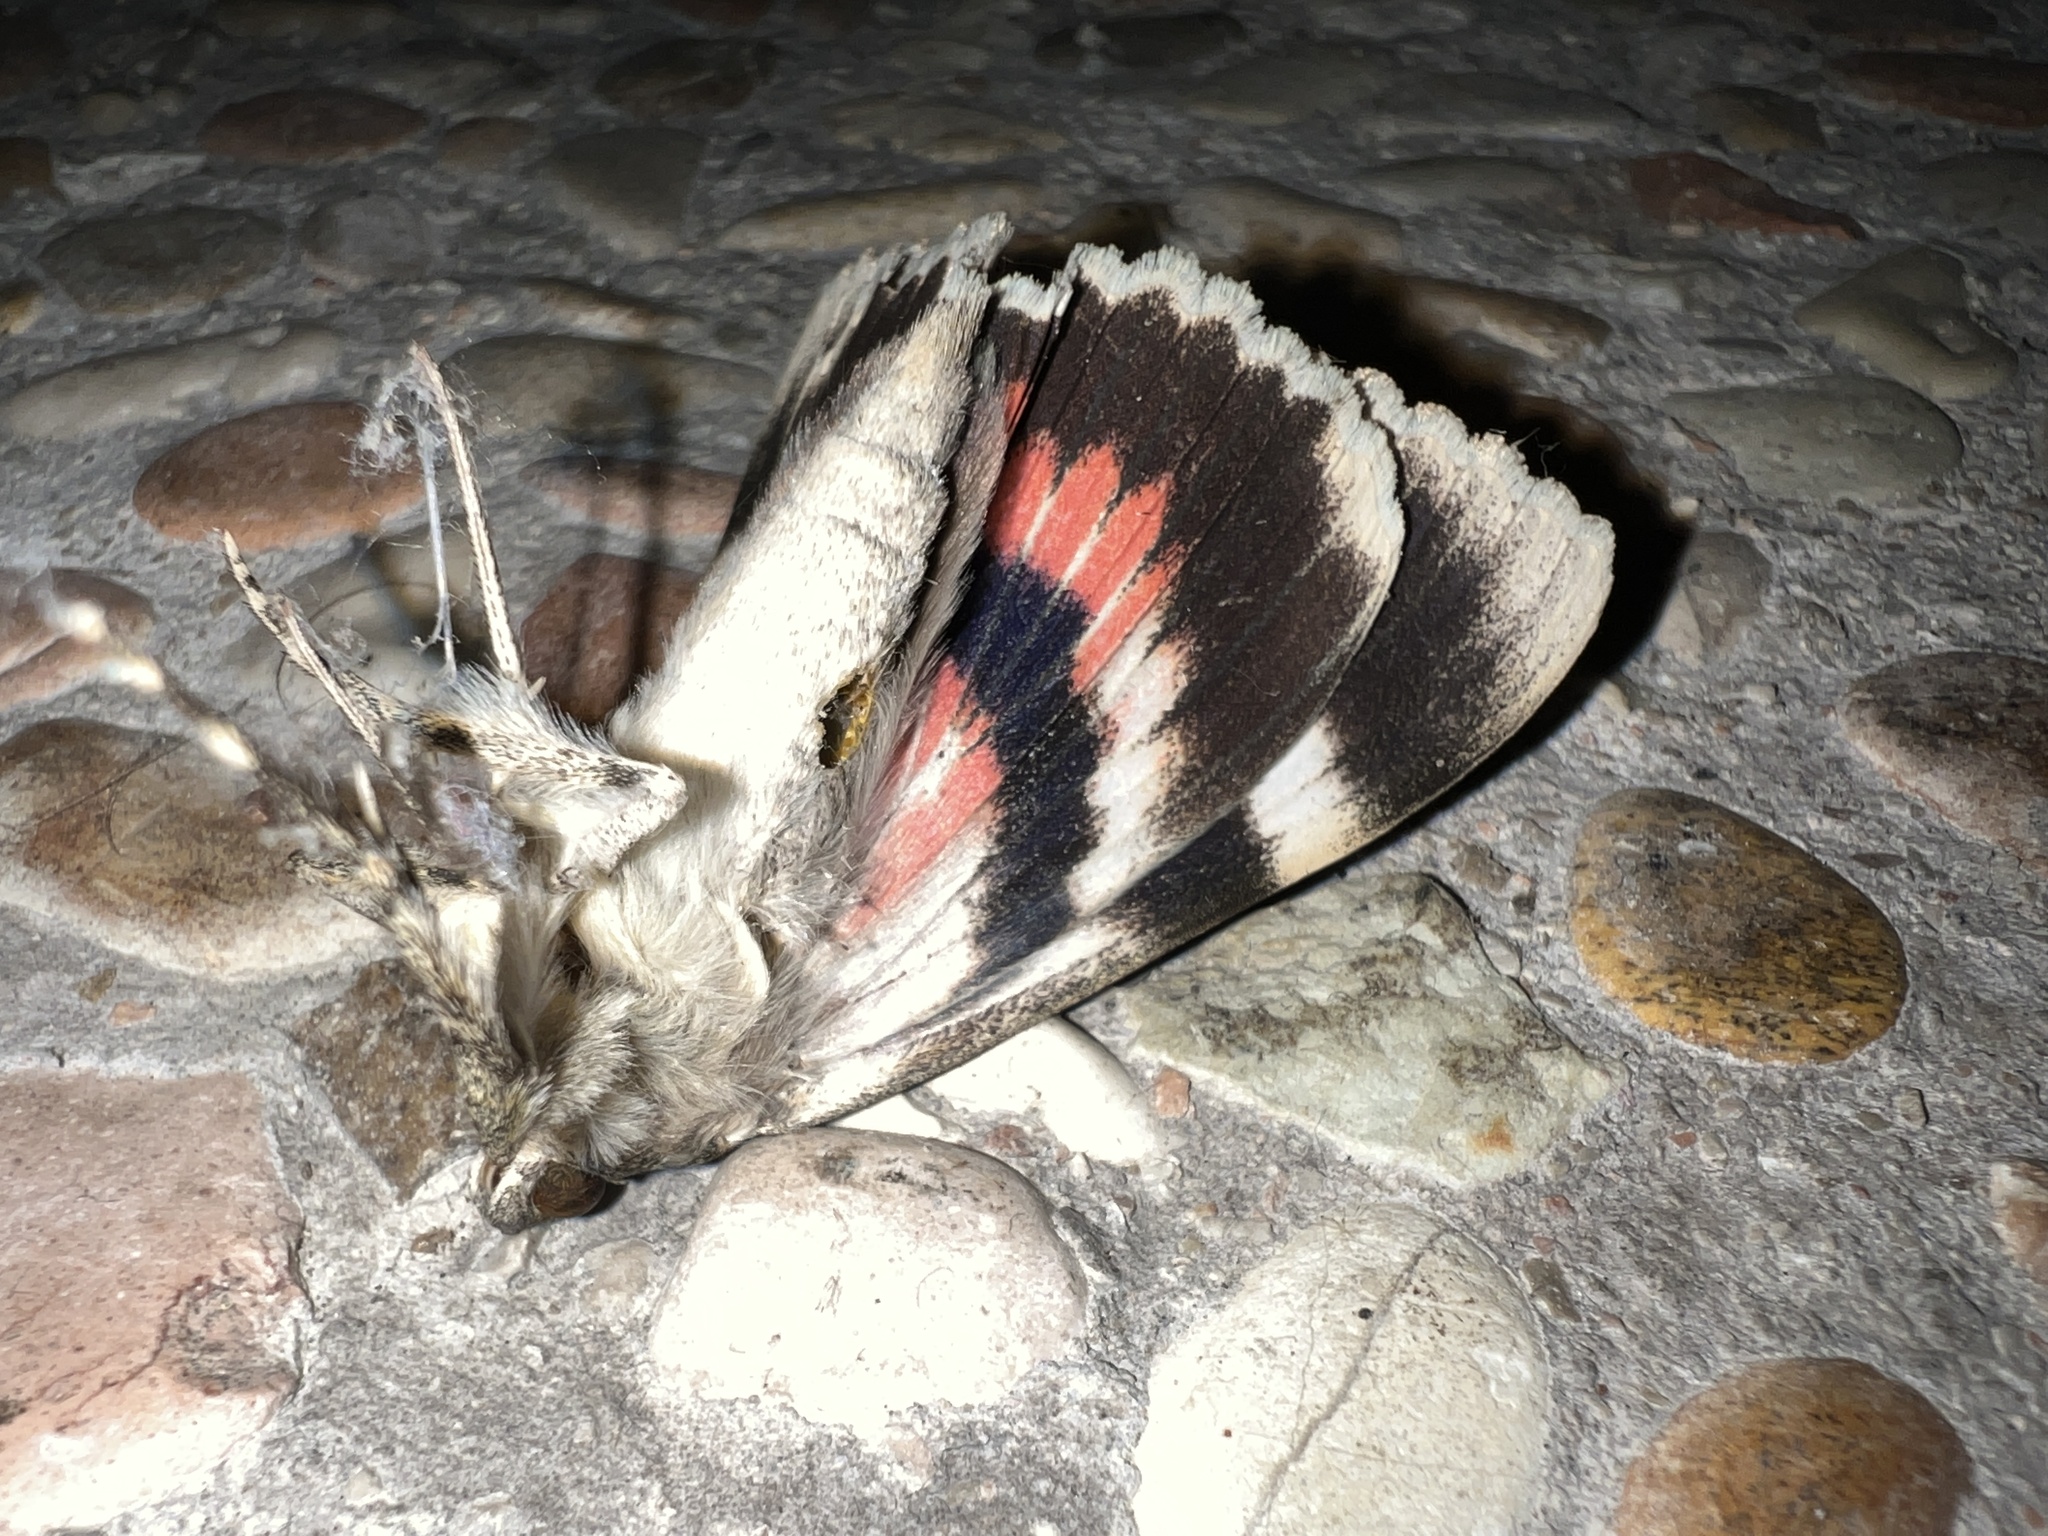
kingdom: Animalia
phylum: Arthropoda
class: Insecta
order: Lepidoptera
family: Erebidae
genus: Catocala
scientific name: Catocala elocata
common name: French red underwing
